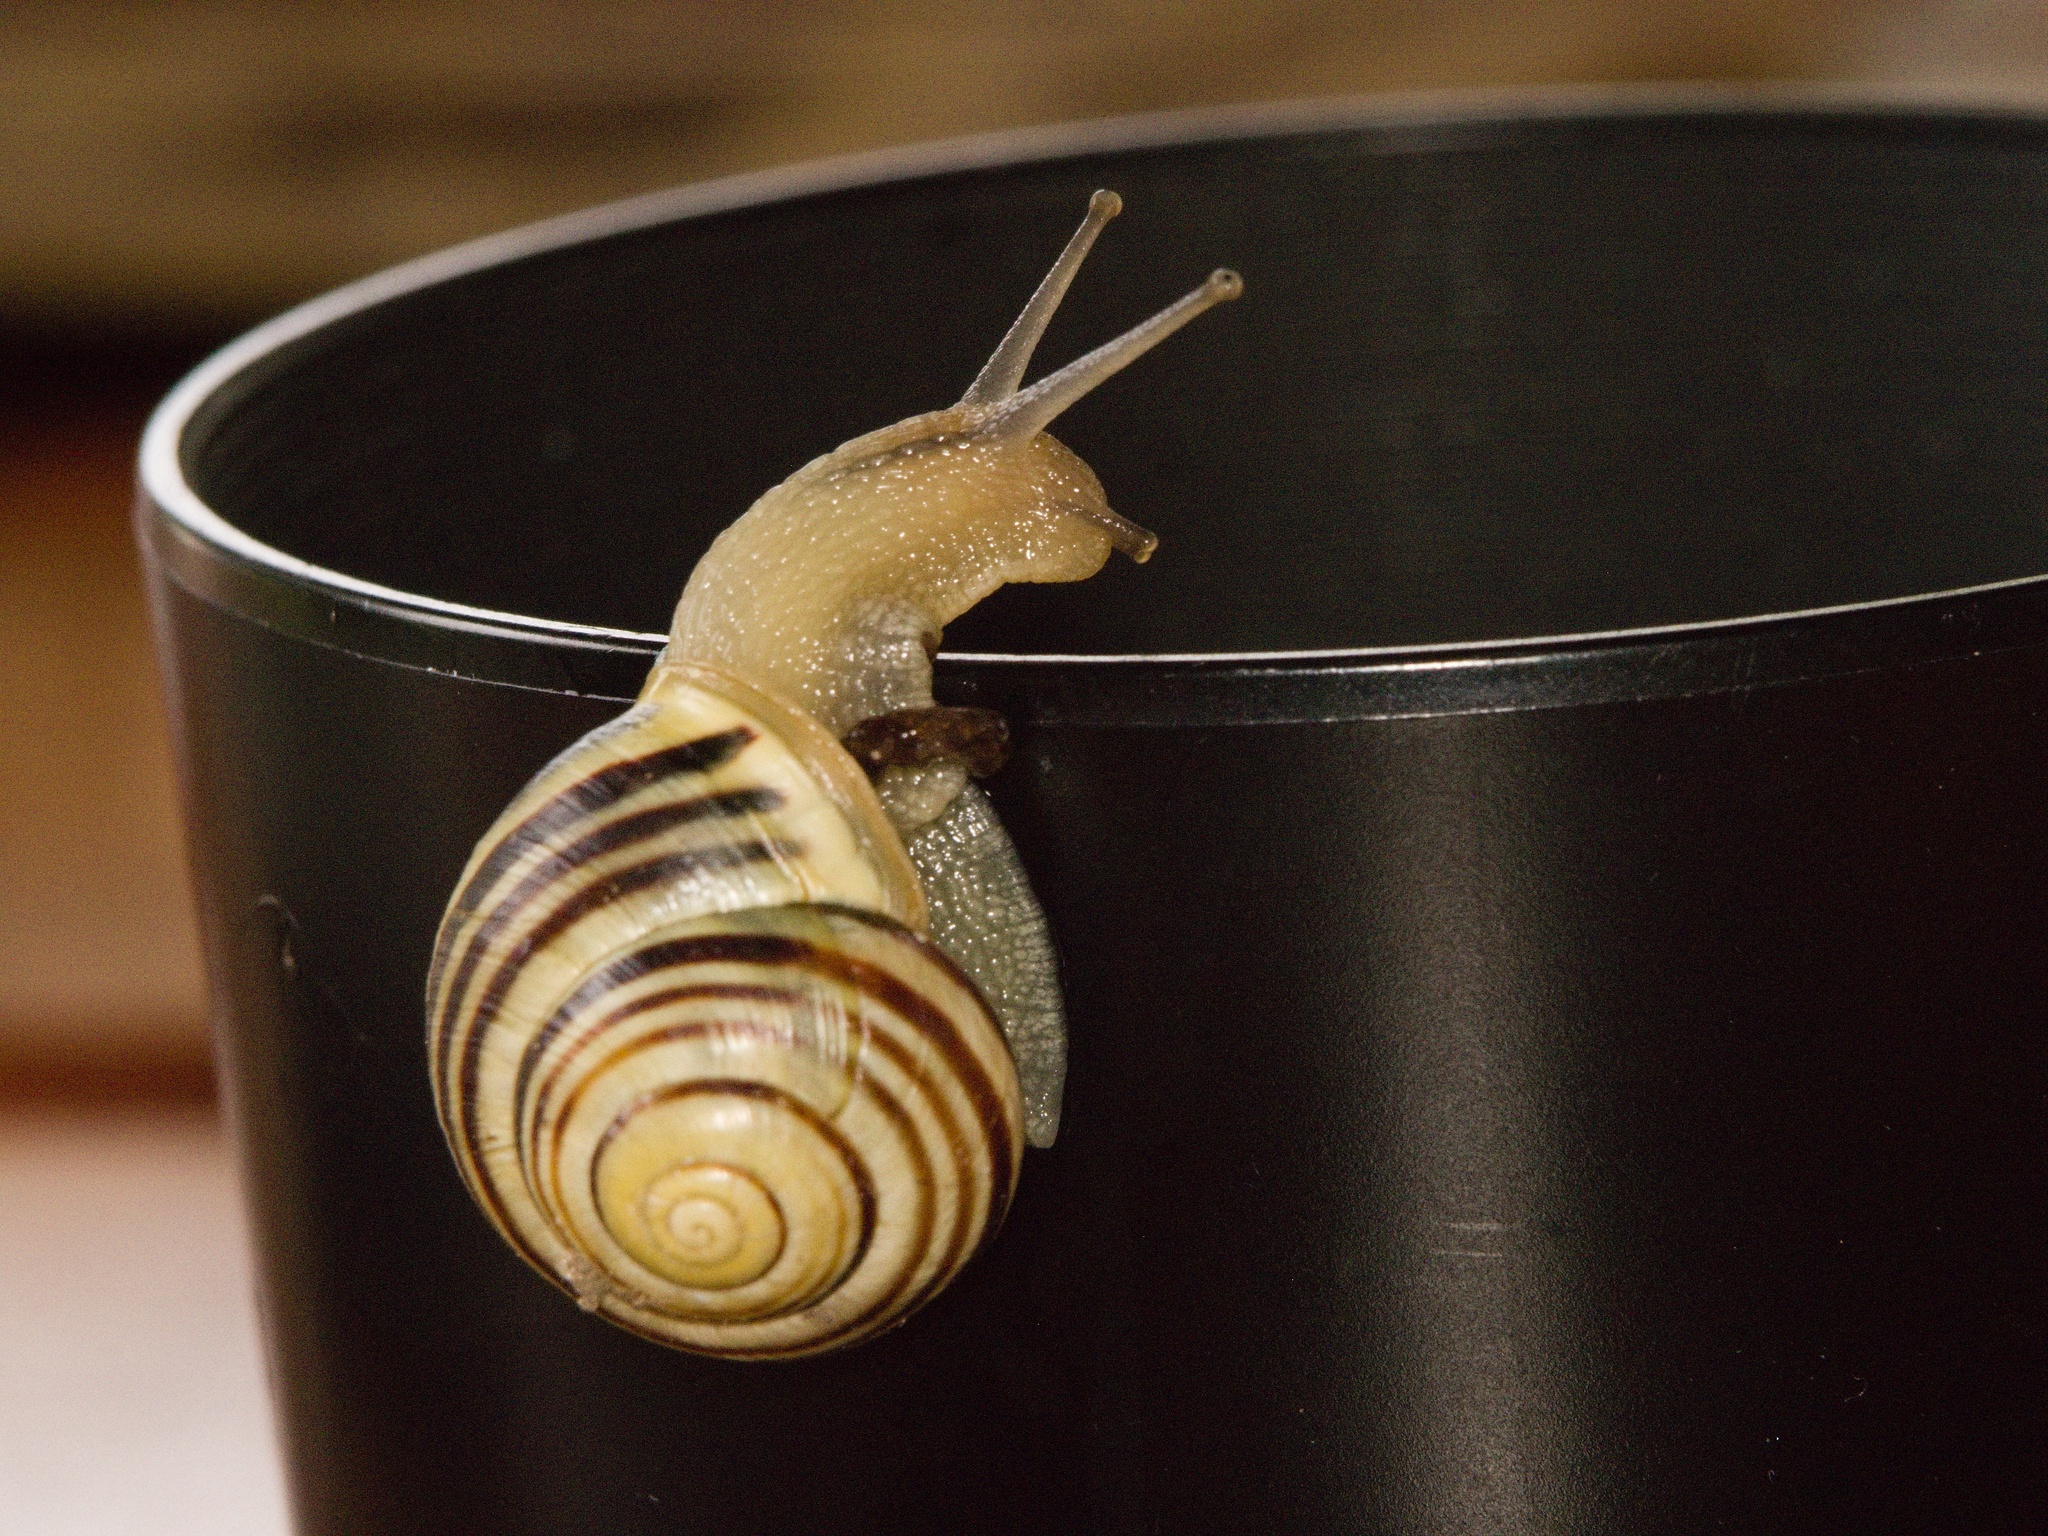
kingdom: Animalia
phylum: Mollusca
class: Gastropoda
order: Stylommatophora
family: Helicidae
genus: Cepaea
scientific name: Cepaea hortensis
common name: White-lip gardensnail
